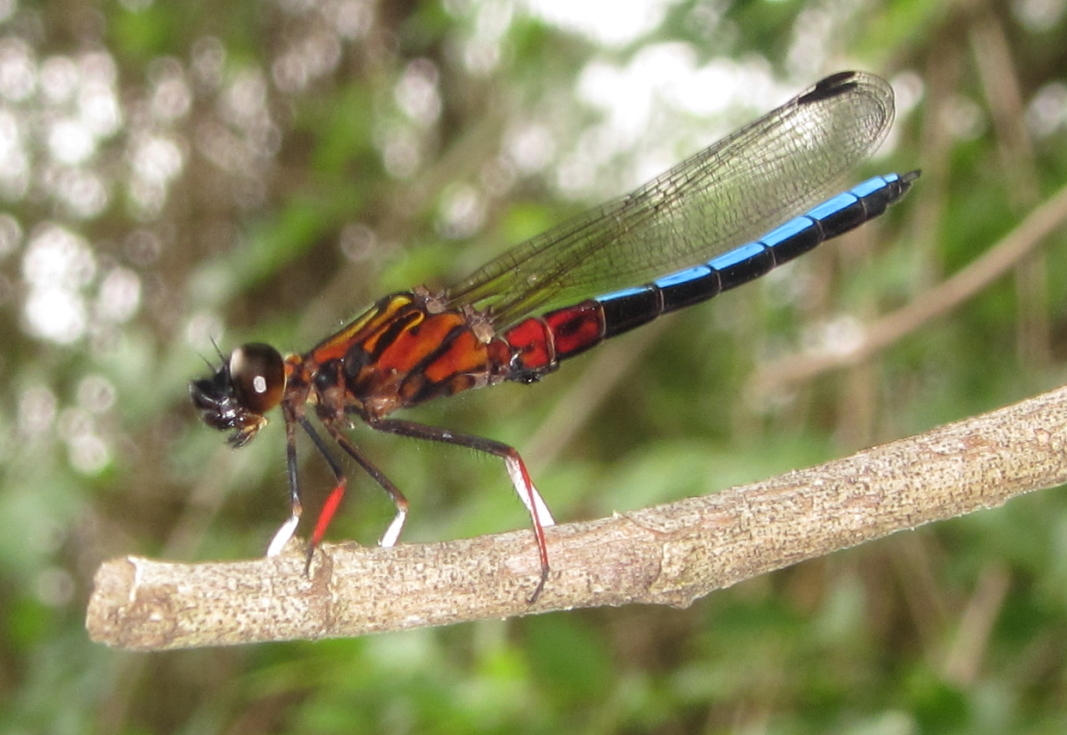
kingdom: Animalia
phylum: Arthropoda
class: Insecta
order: Odonata
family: Chlorocyphidae
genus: Platycypha
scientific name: Platycypha caligata
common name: Dancing jewel
